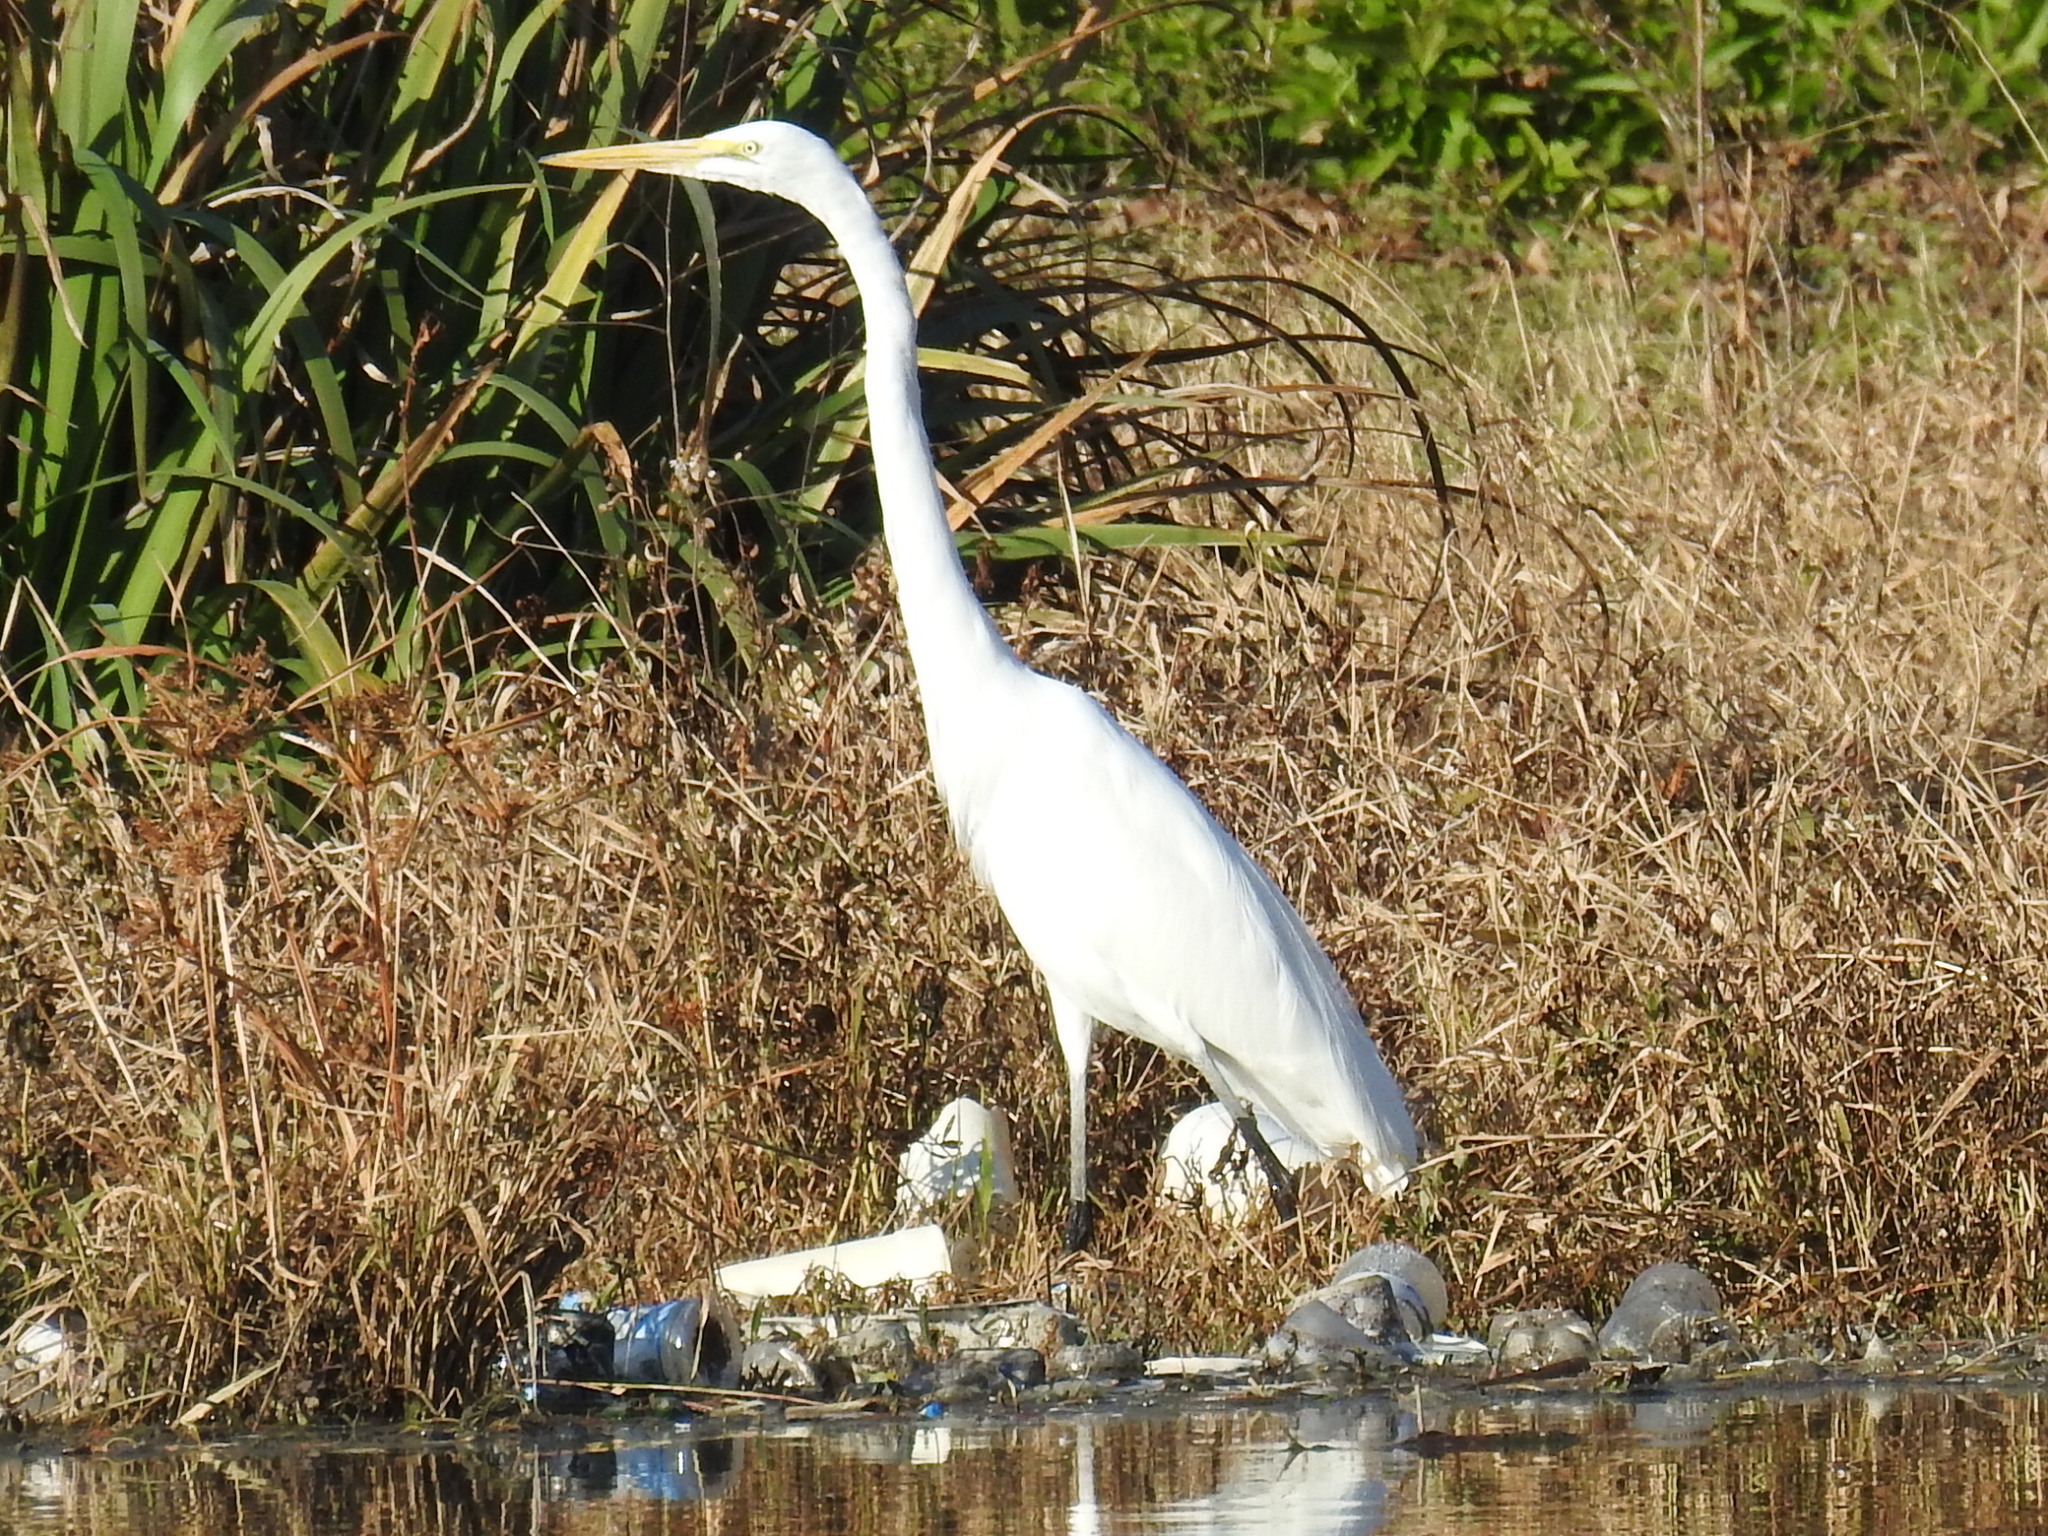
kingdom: Animalia
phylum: Chordata
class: Aves
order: Pelecaniformes
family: Ardeidae
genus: Ardea
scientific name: Ardea alba
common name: Great egret
